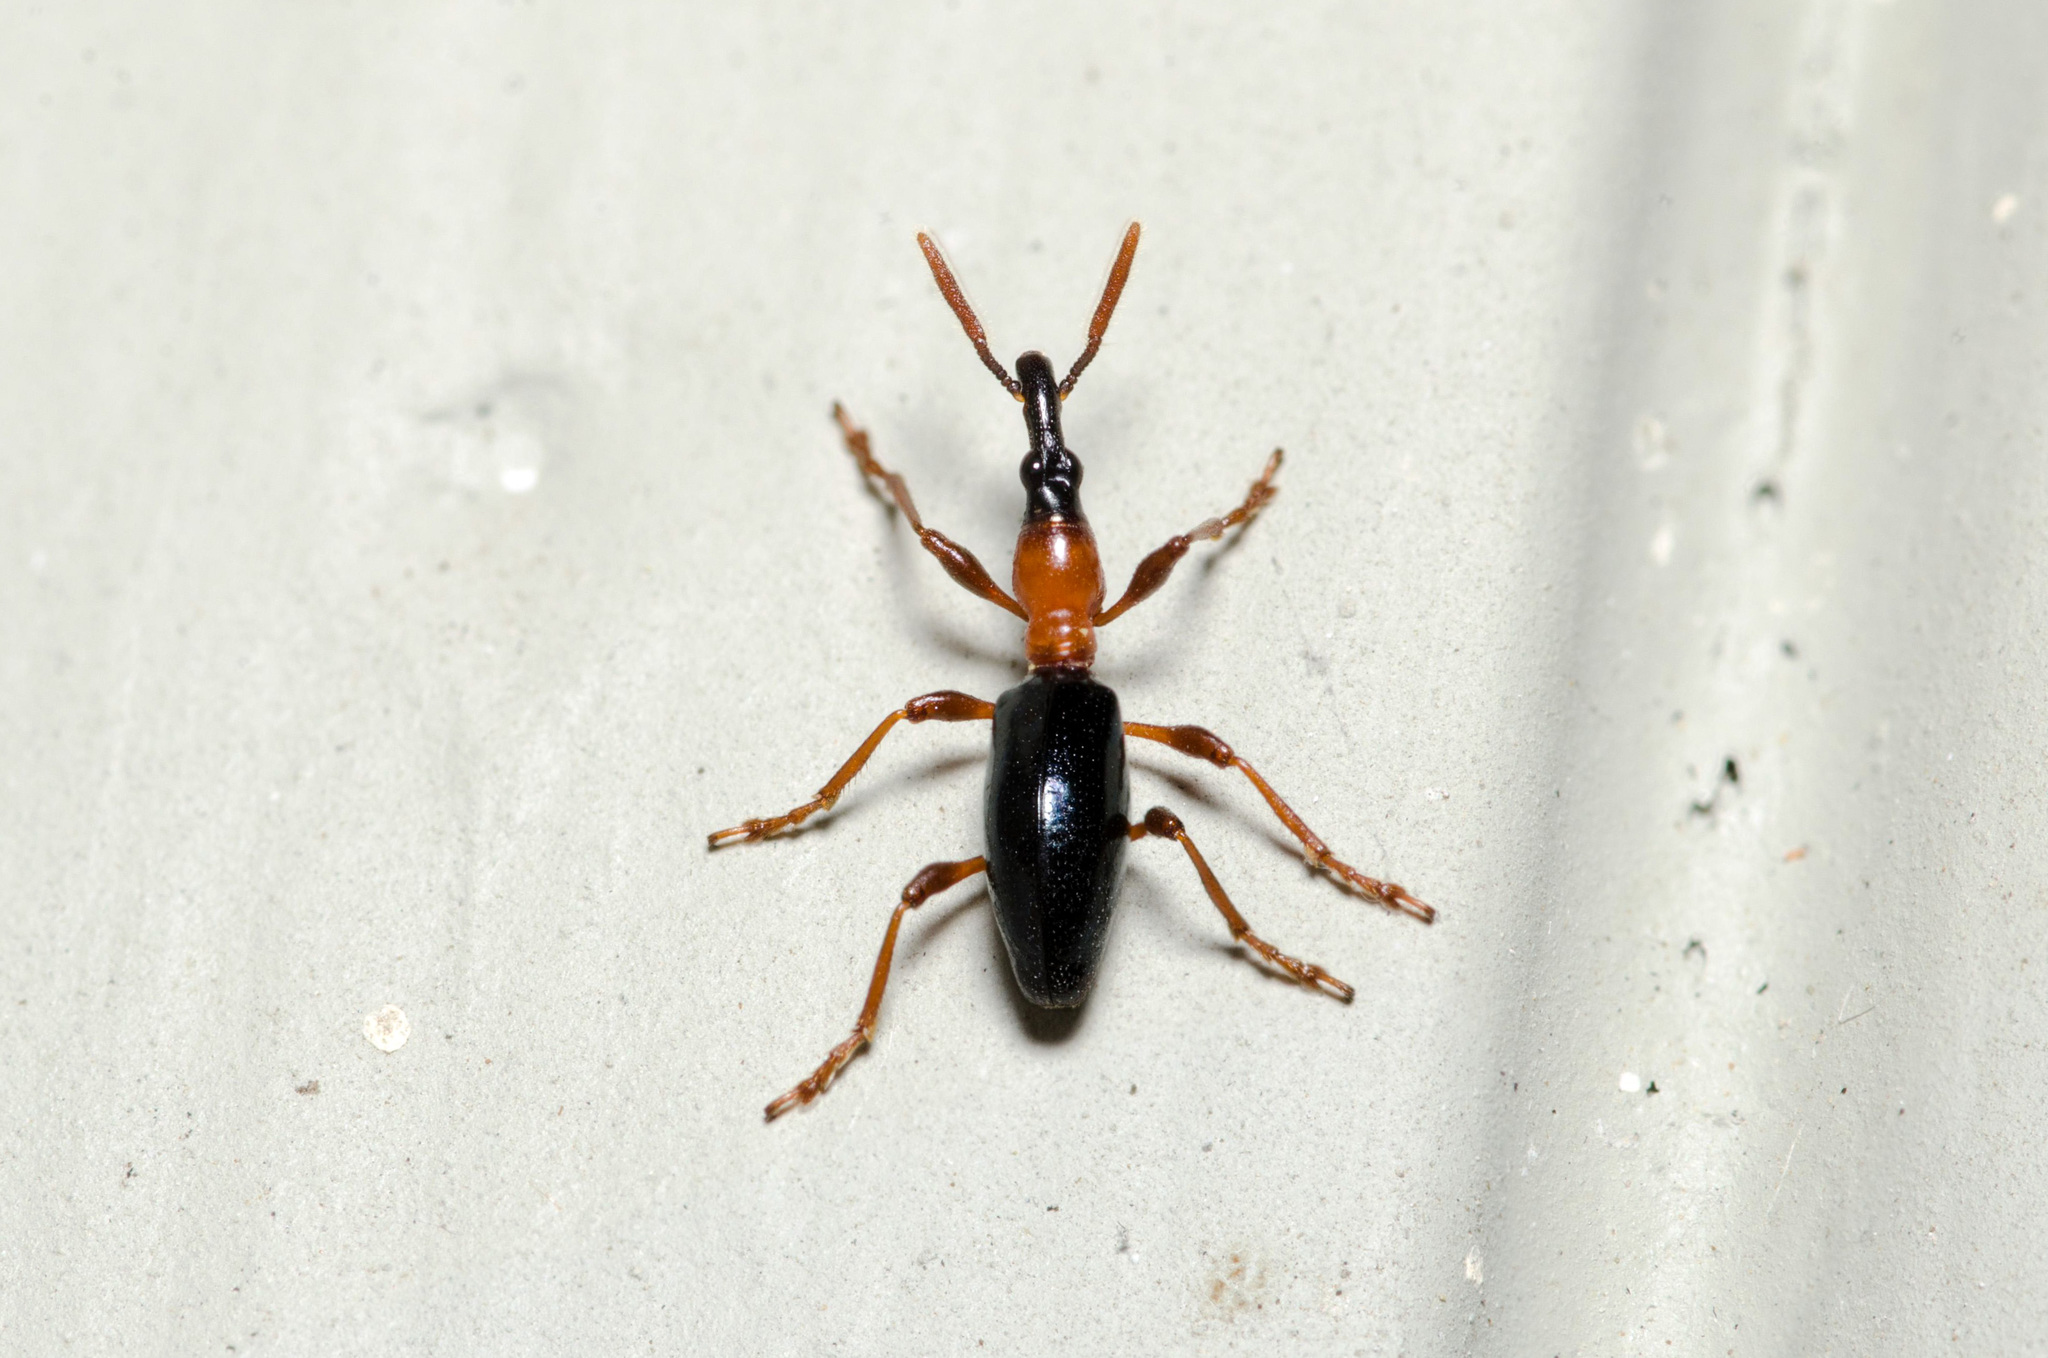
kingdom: Animalia
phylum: Arthropoda
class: Insecta
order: Coleoptera
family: Brentidae
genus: Cylas
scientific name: Cylas formicarius
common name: Sweetpotato weevil
